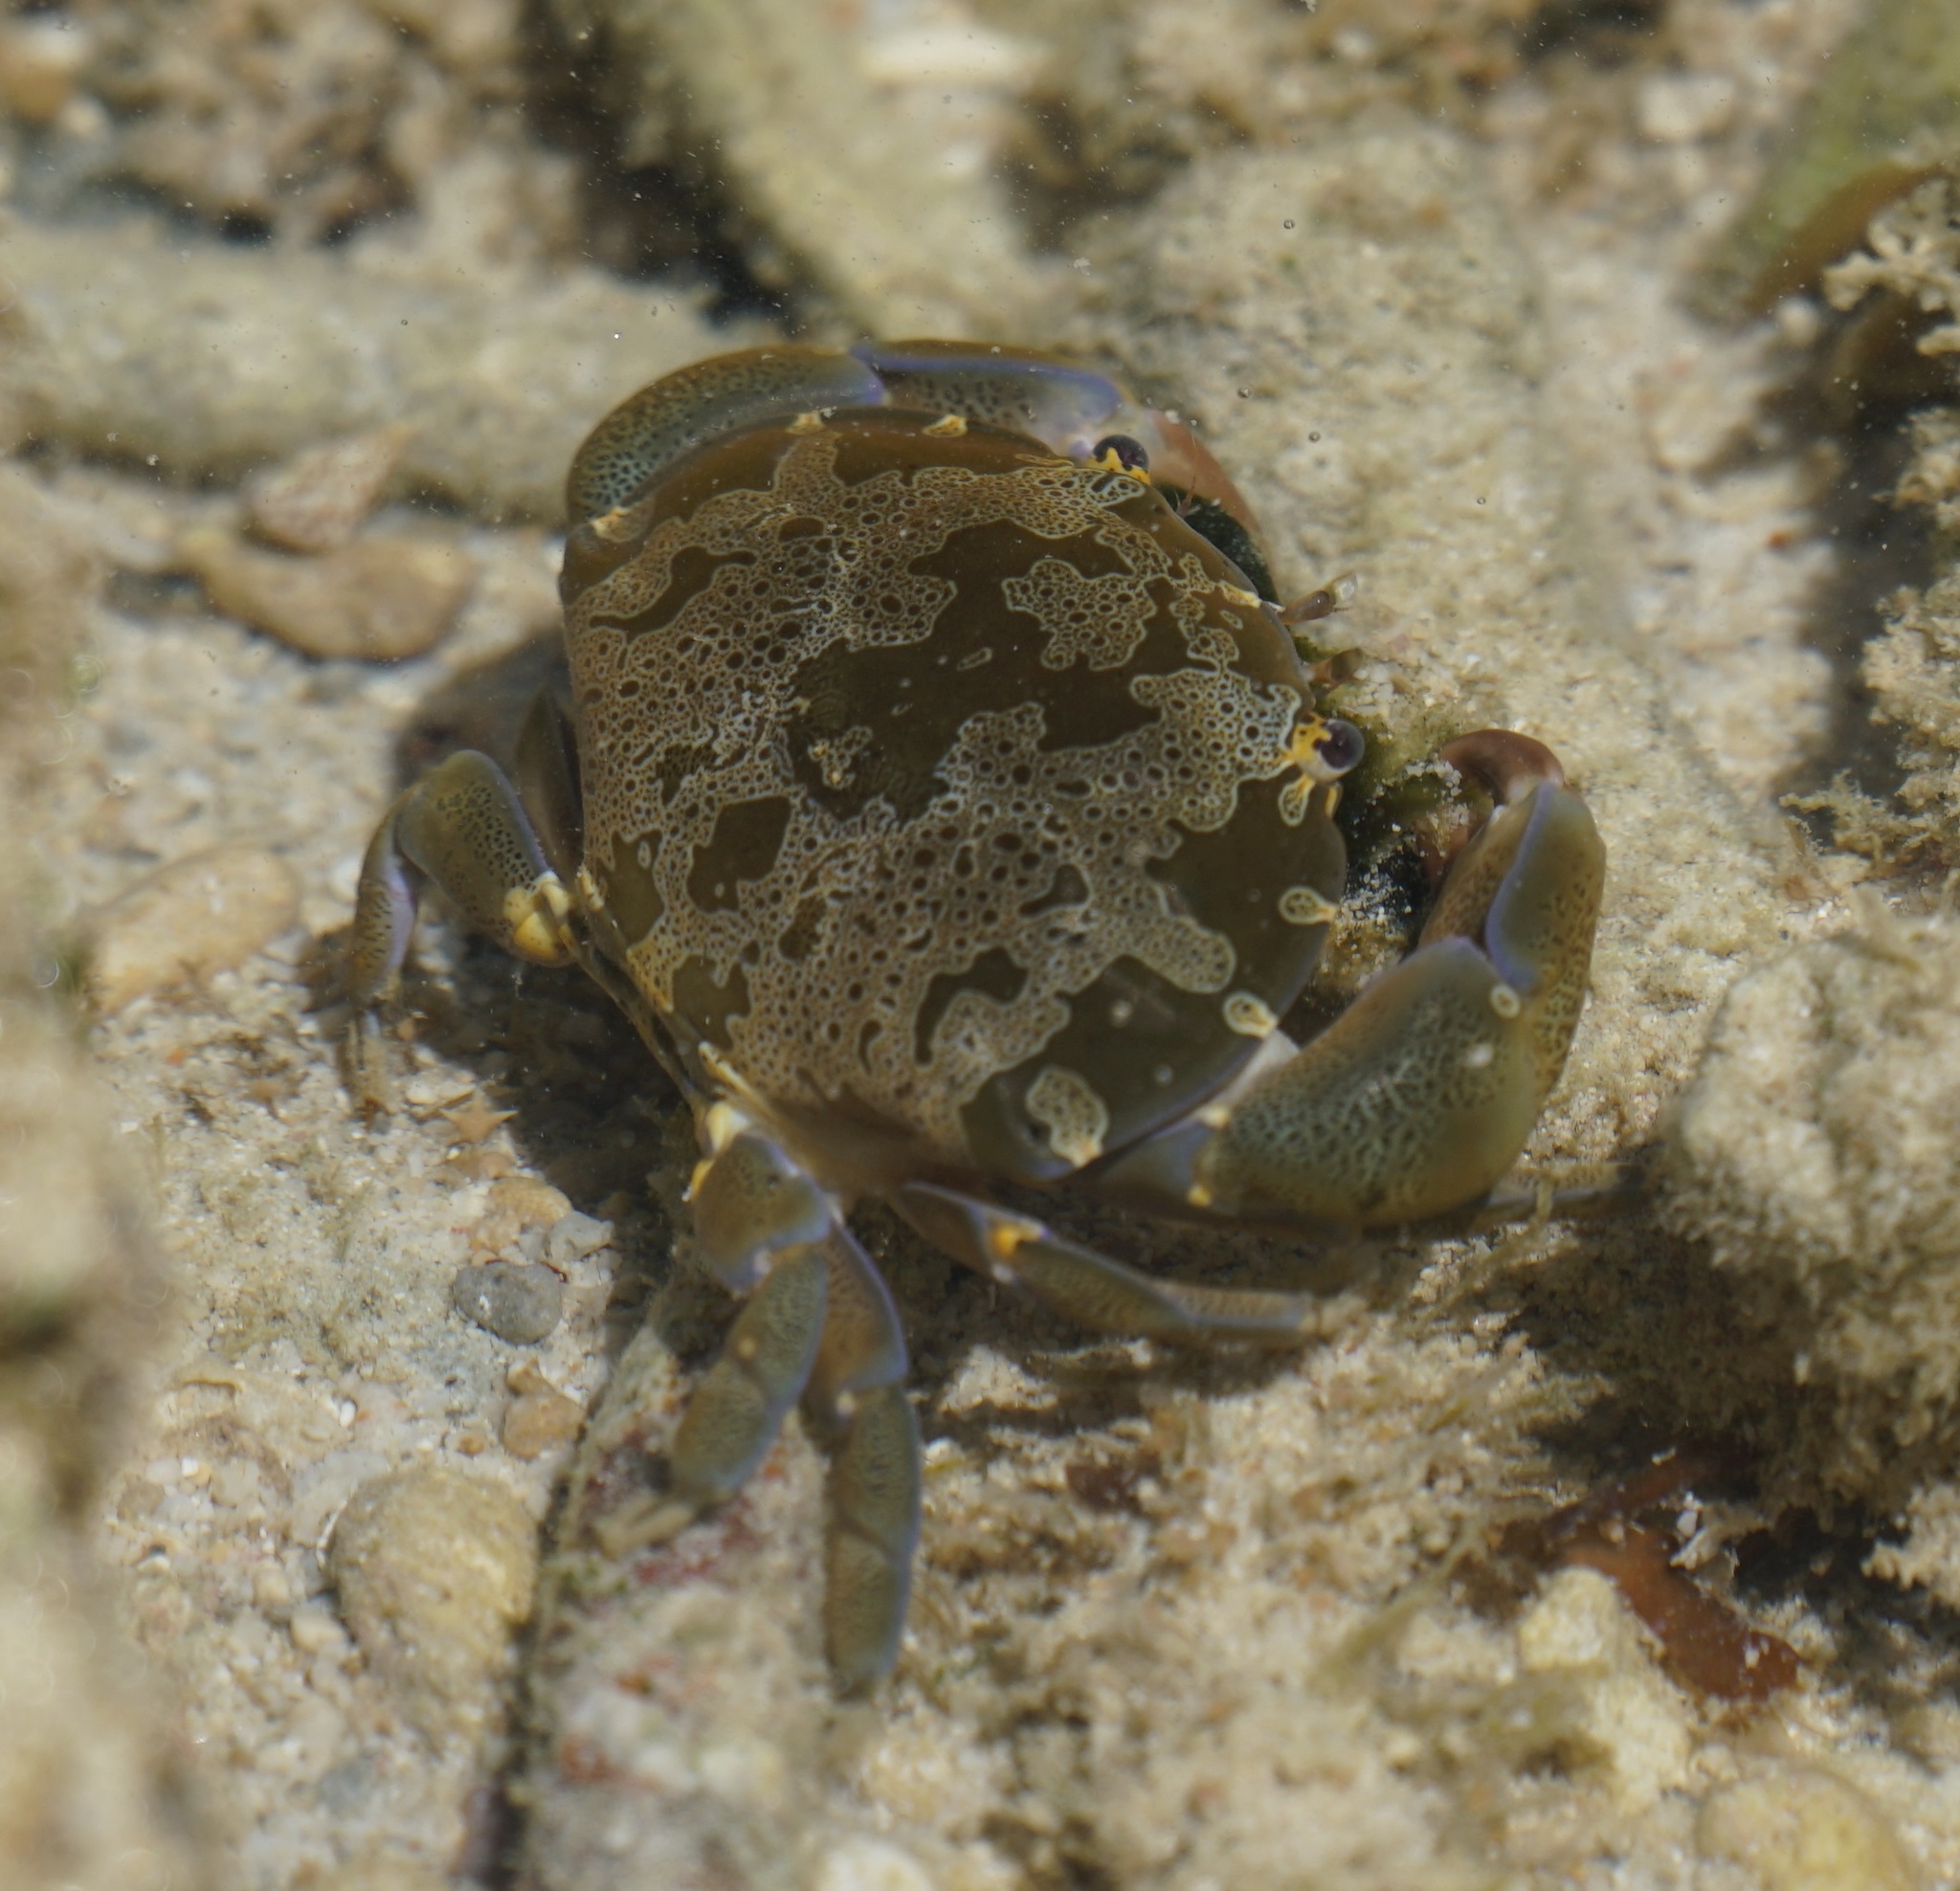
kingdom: Animalia
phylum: Arthropoda
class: Malacostraca
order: Decapoda
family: Xanthidae
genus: Atergatis
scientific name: Atergatis floridus
